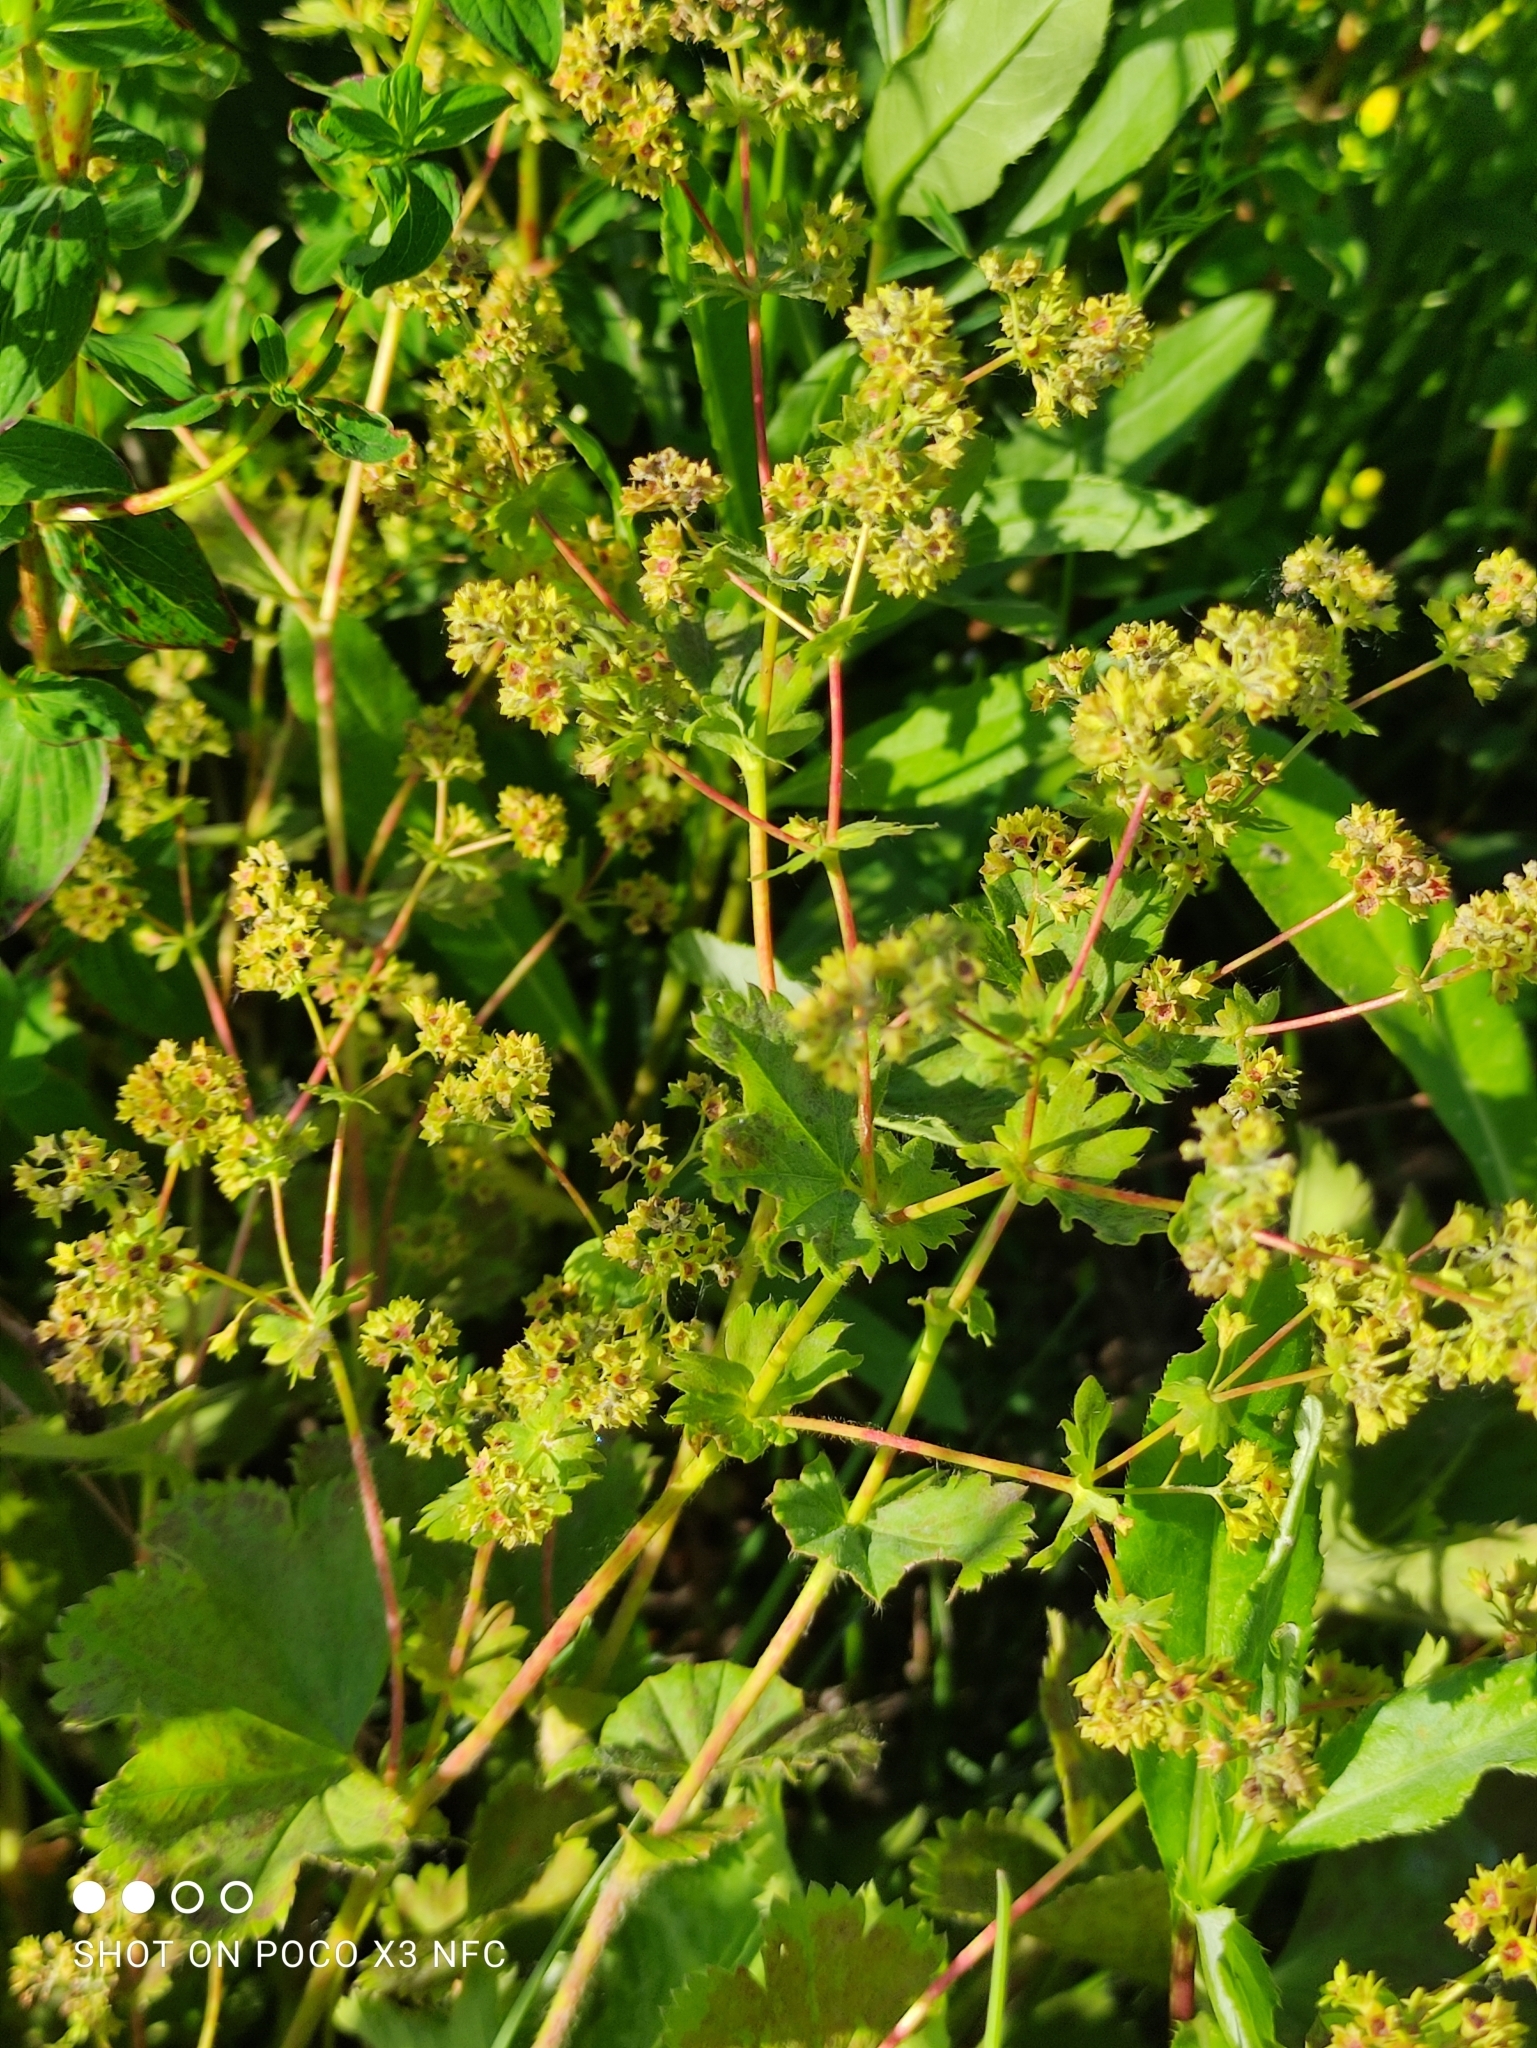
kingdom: Plantae
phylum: Tracheophyta
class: Magnoliopsida
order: Rosales
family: Rosaceae
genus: Alchemilla
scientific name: Alchemilla sarmatica
